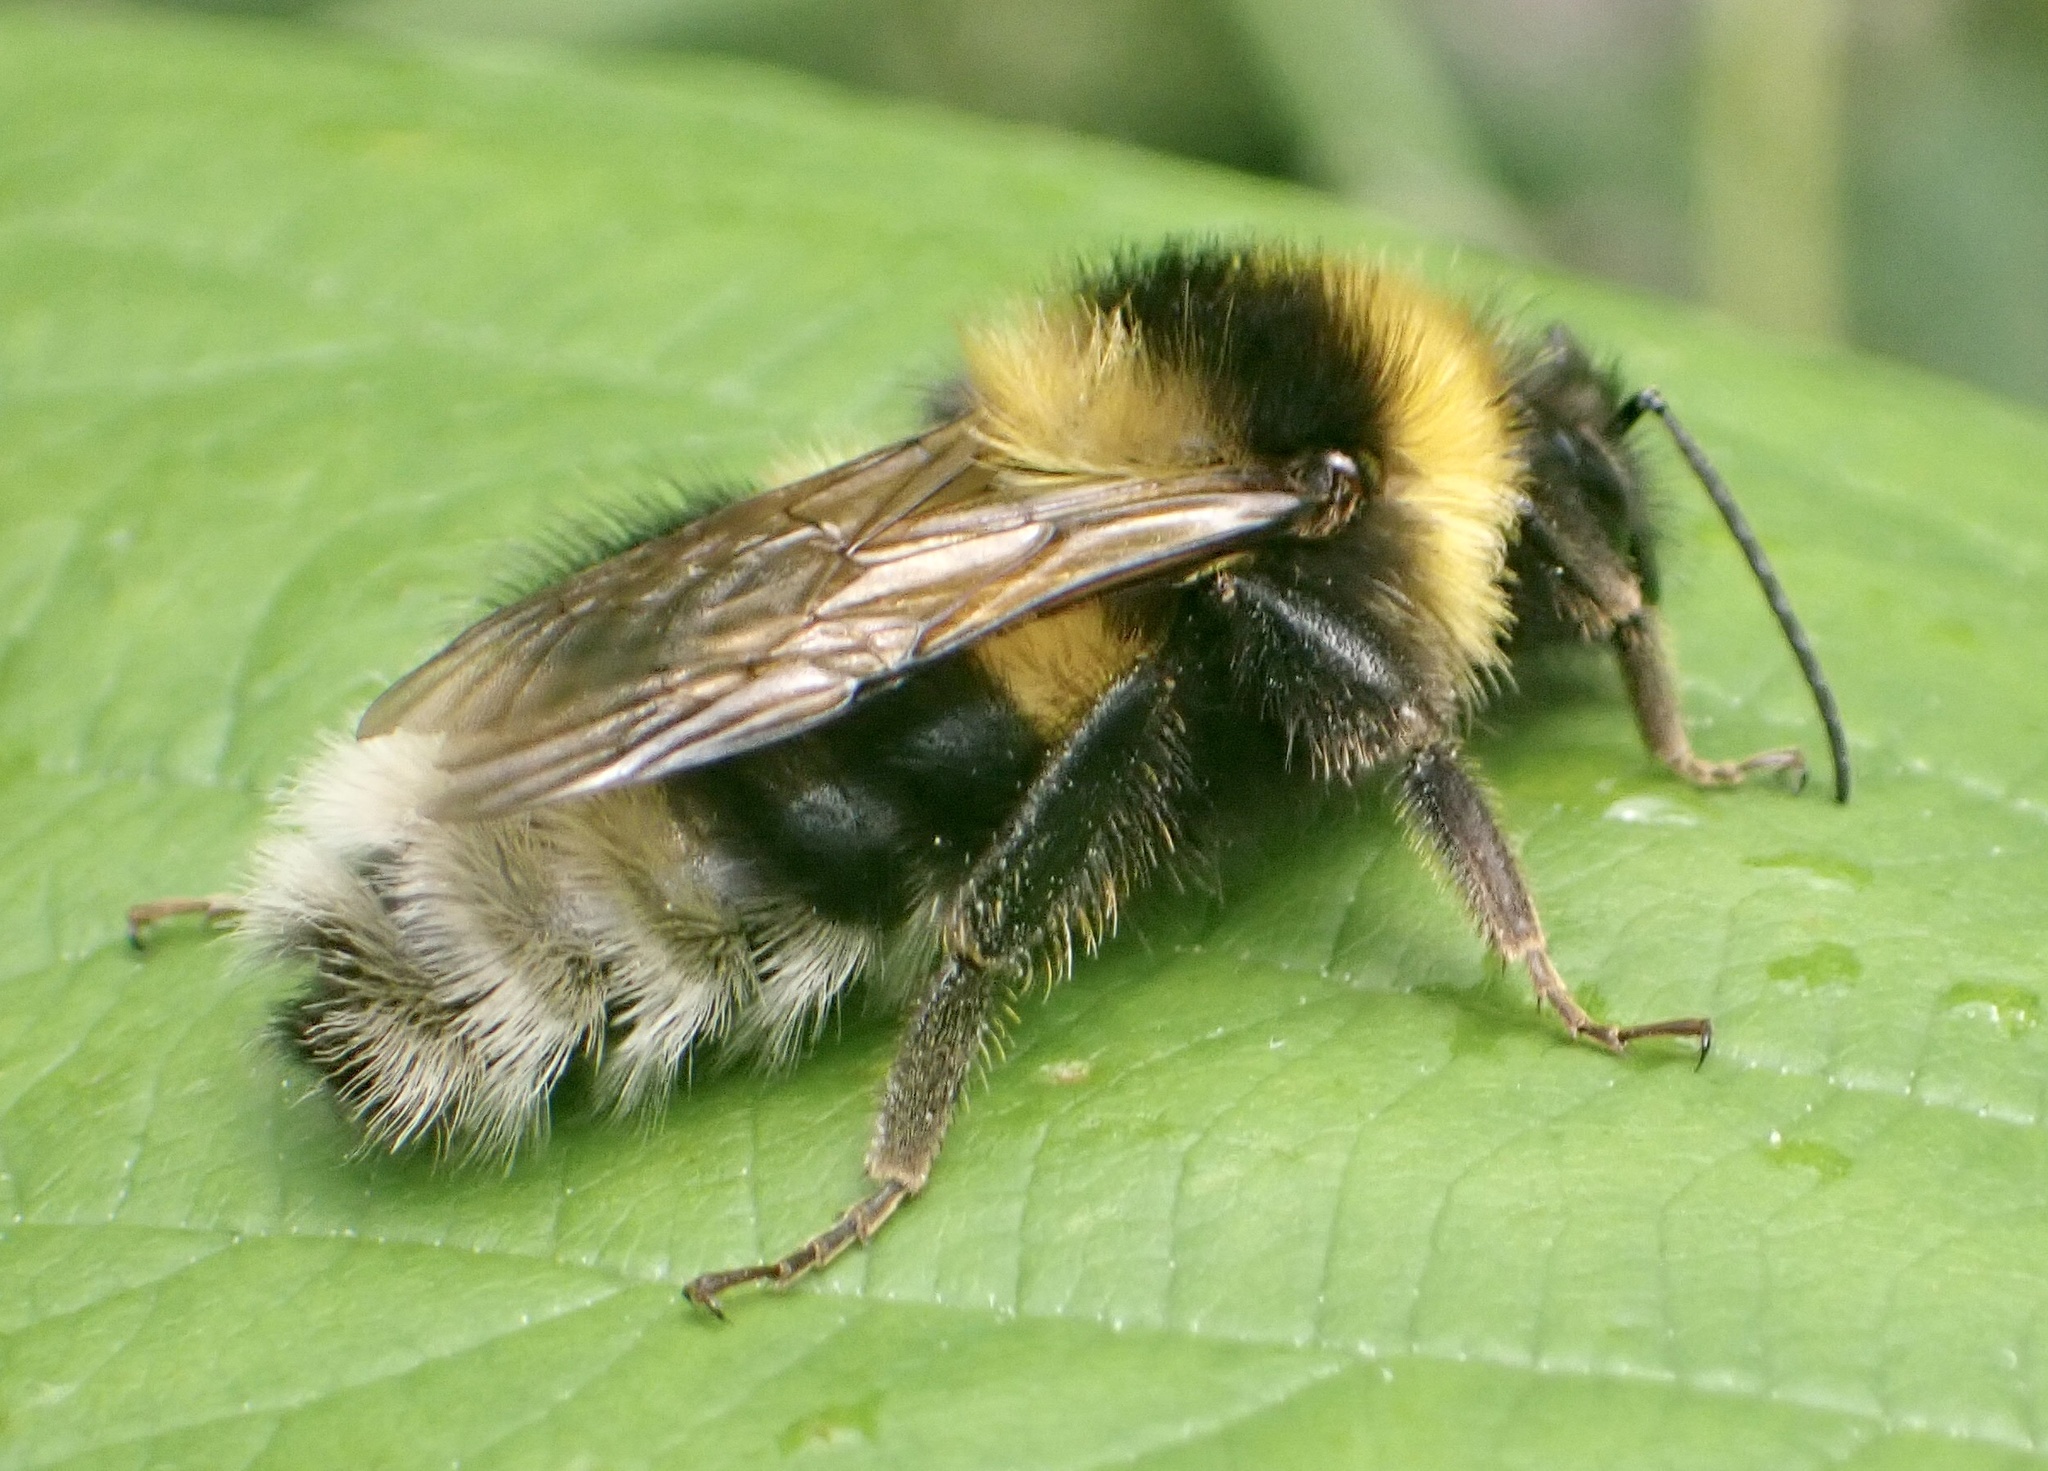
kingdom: Animalia
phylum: Arthropoda
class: Insecta
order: Hymenoptera
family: Apidae
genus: Bombus
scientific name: Bombus hortorum
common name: Garden bumblebee
